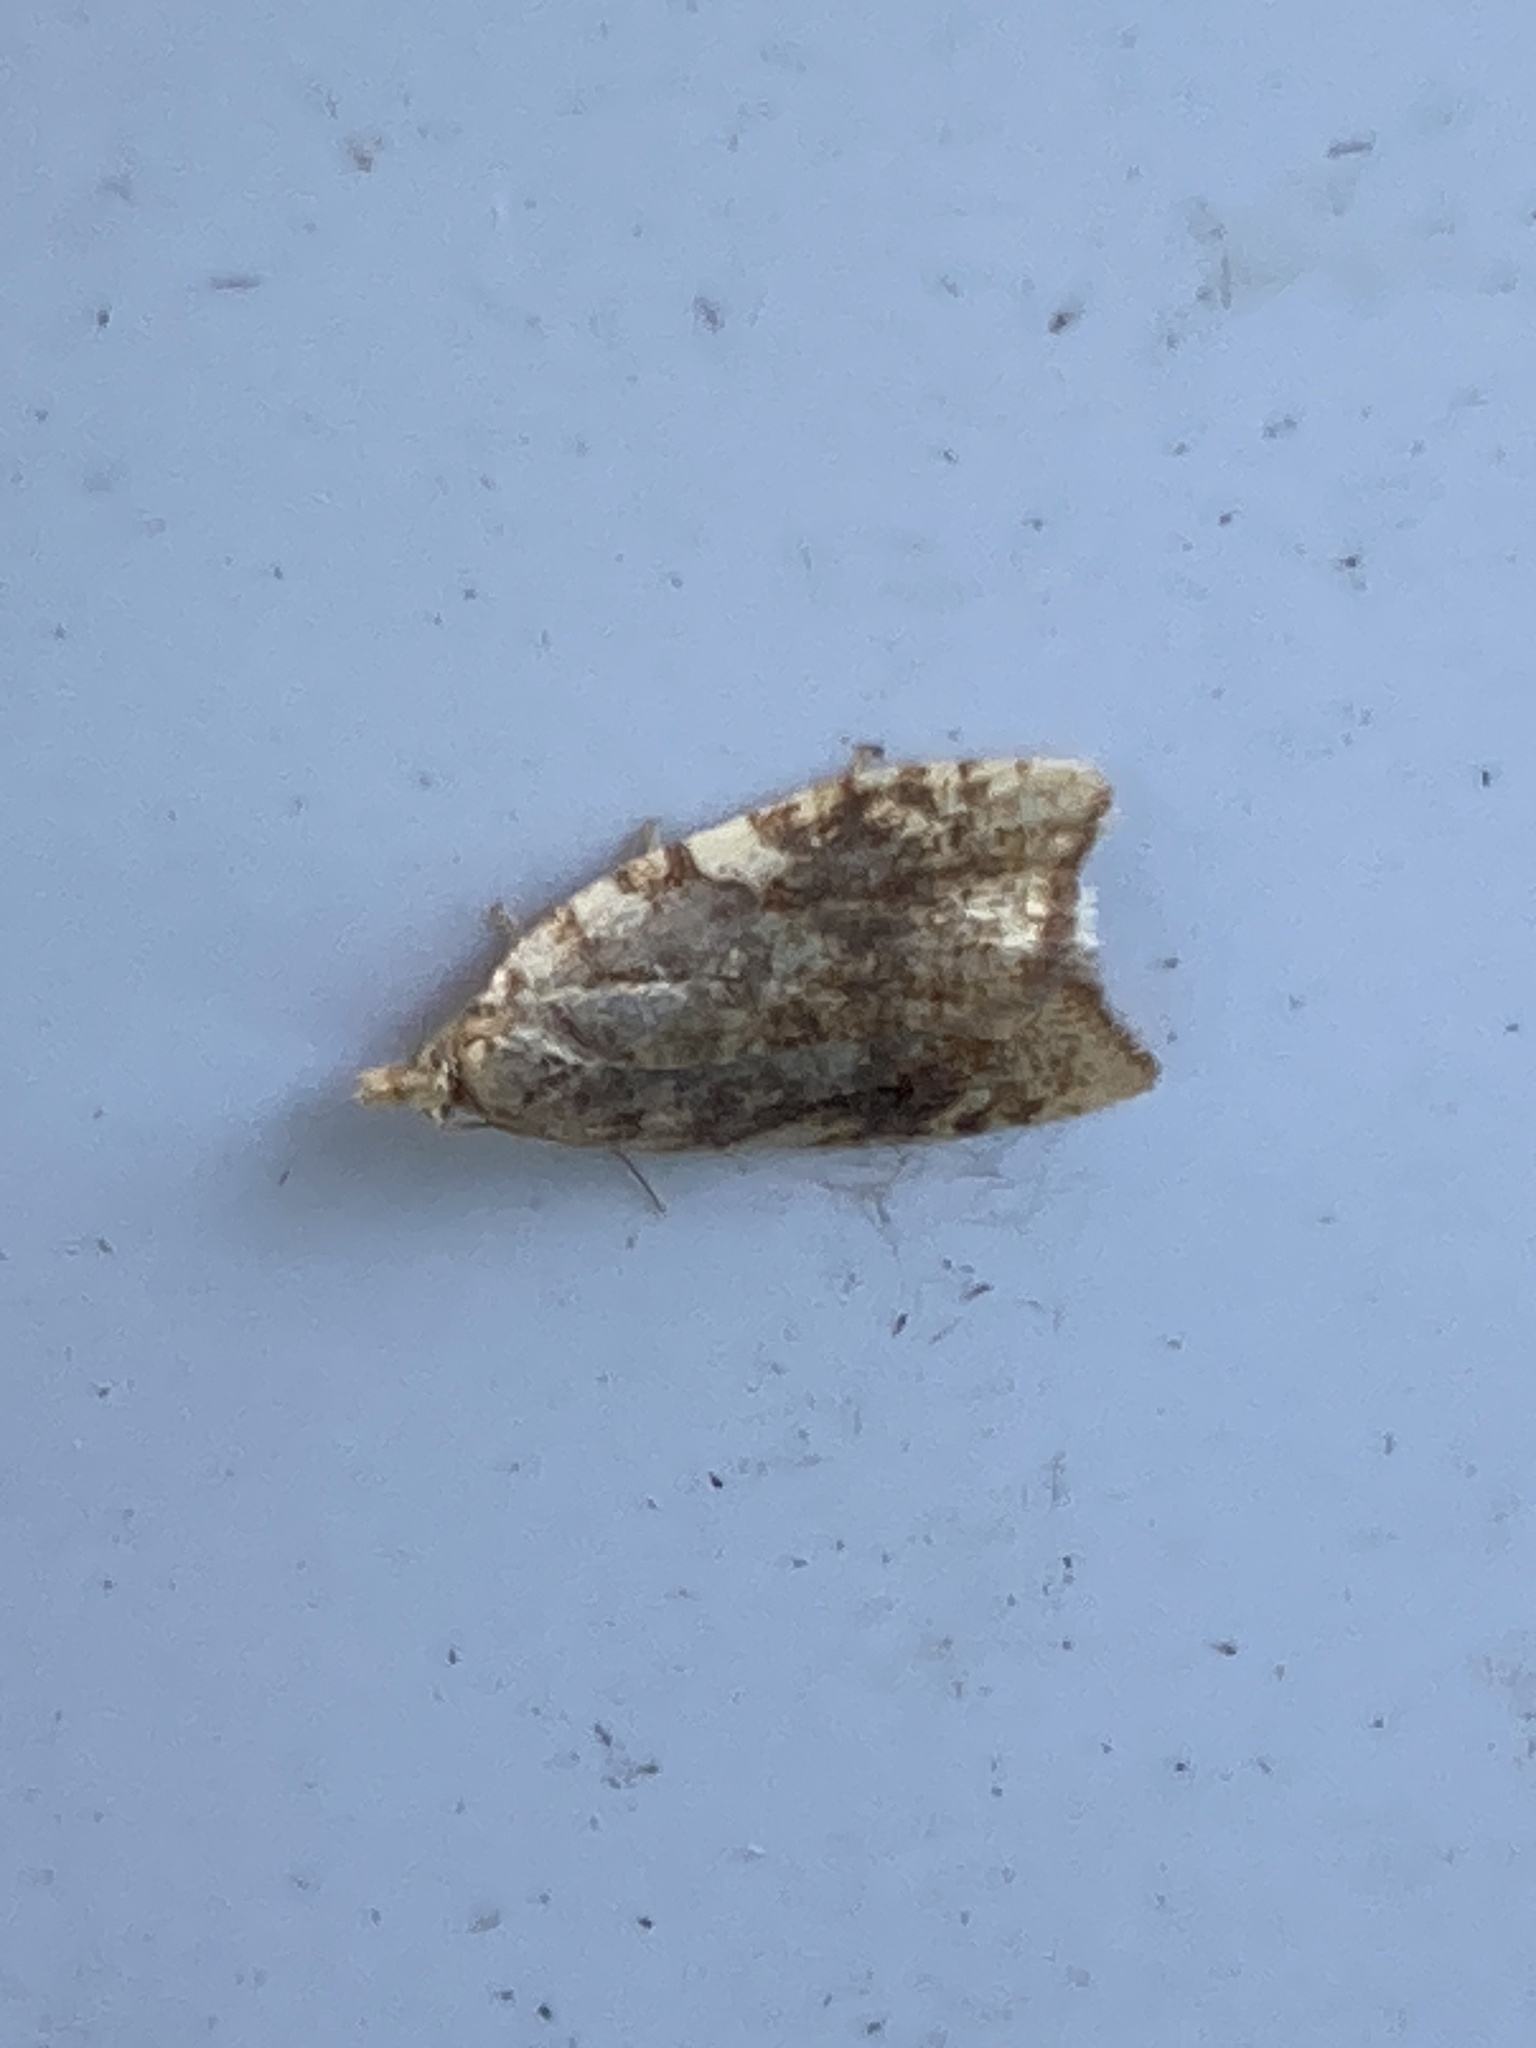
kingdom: Animalia
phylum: Arthropoda
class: Insecta
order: Lepidoptera
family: Tortricidae
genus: Aleimma
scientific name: Aleimma loeflingiana
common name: Yellow oak button
